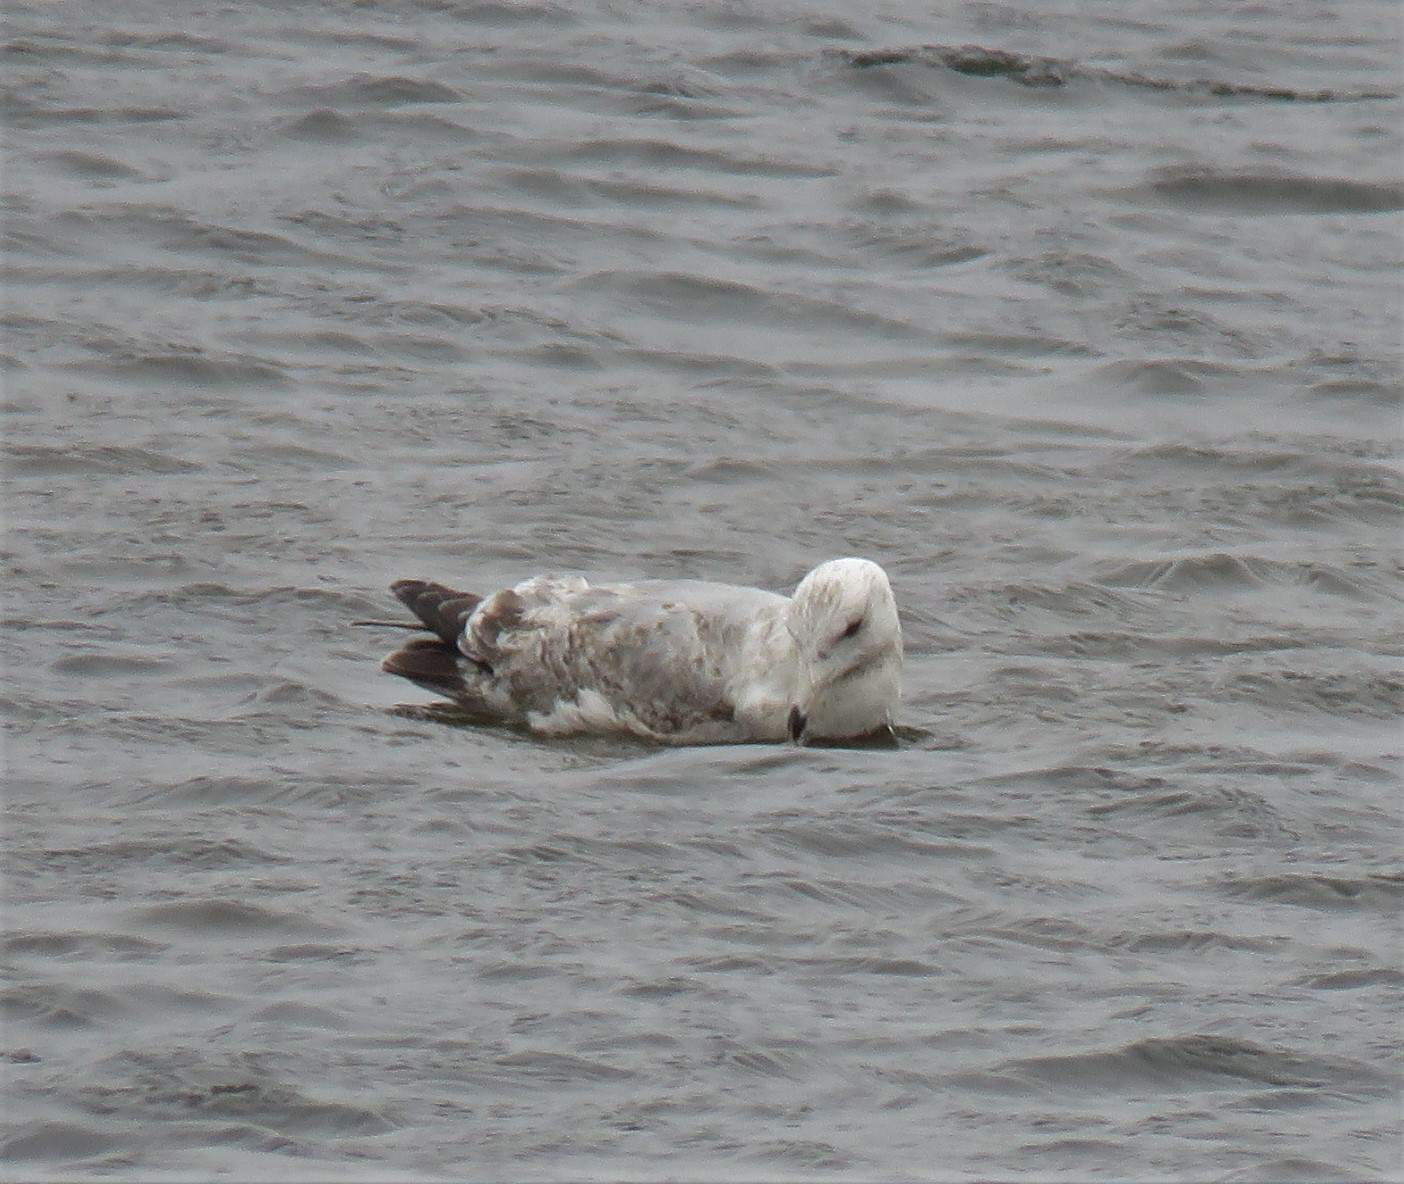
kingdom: Animalia
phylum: Chordata
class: Aves
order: Charadriiformes
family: Laridae
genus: Larus
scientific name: Larus argentatus
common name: Herring gull
